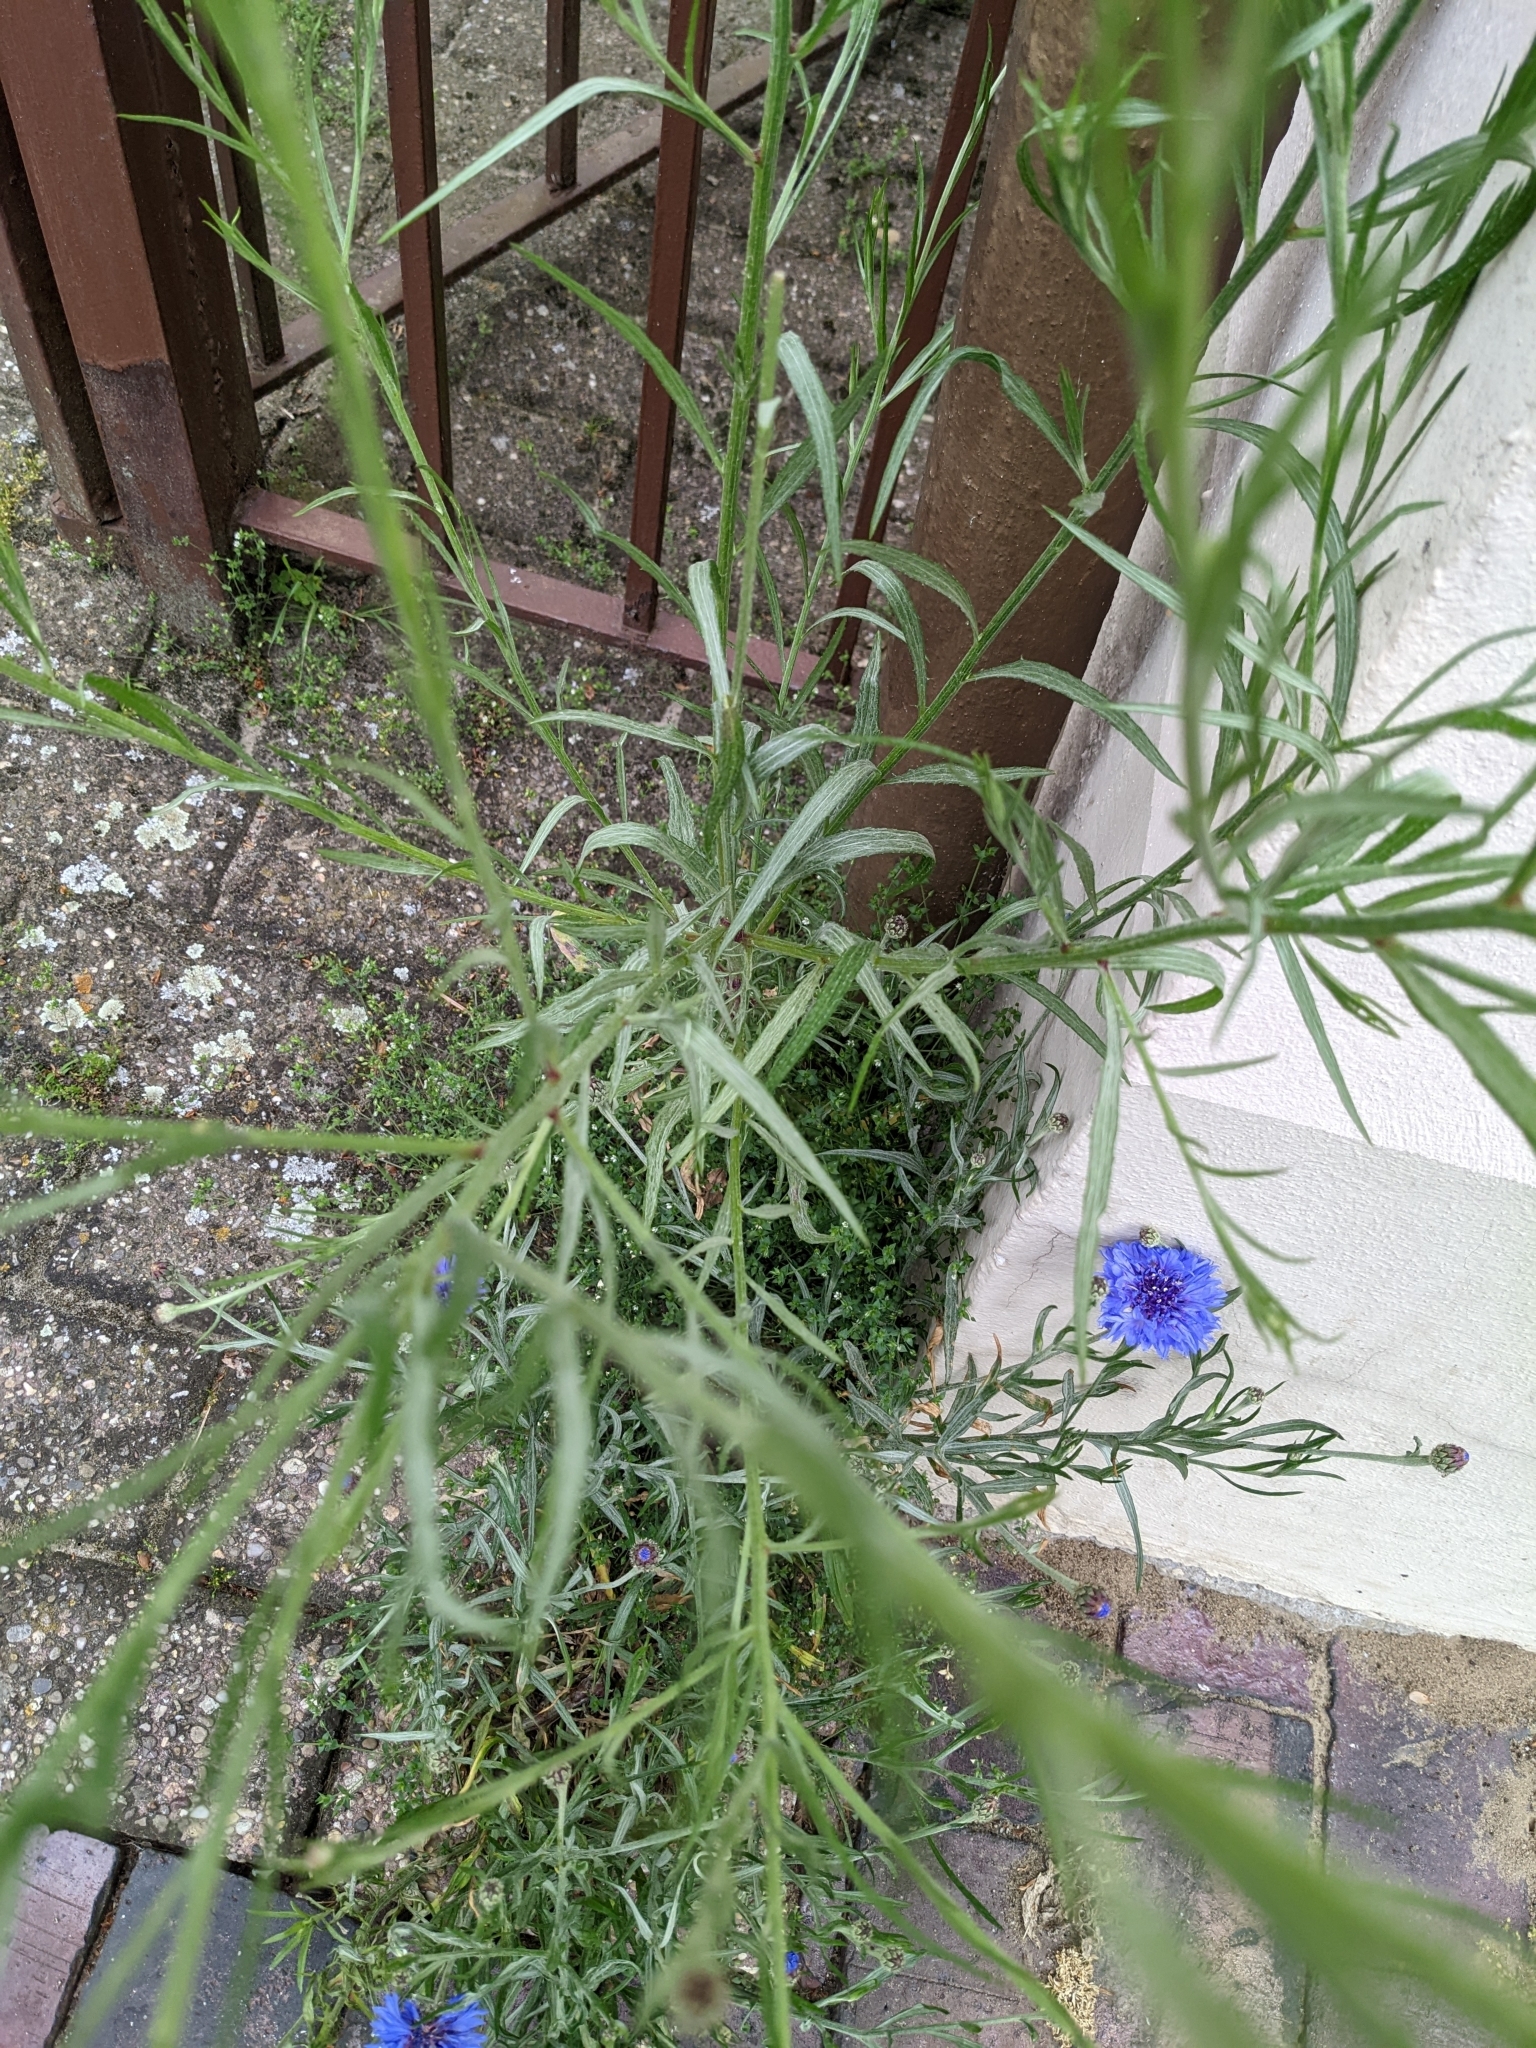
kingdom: Plantae
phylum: Tracheophyta
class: Magnoliopsida
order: Asterales
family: Asteraceae
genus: Centaurea
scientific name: Centaurea cyanus
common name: Cornflower
